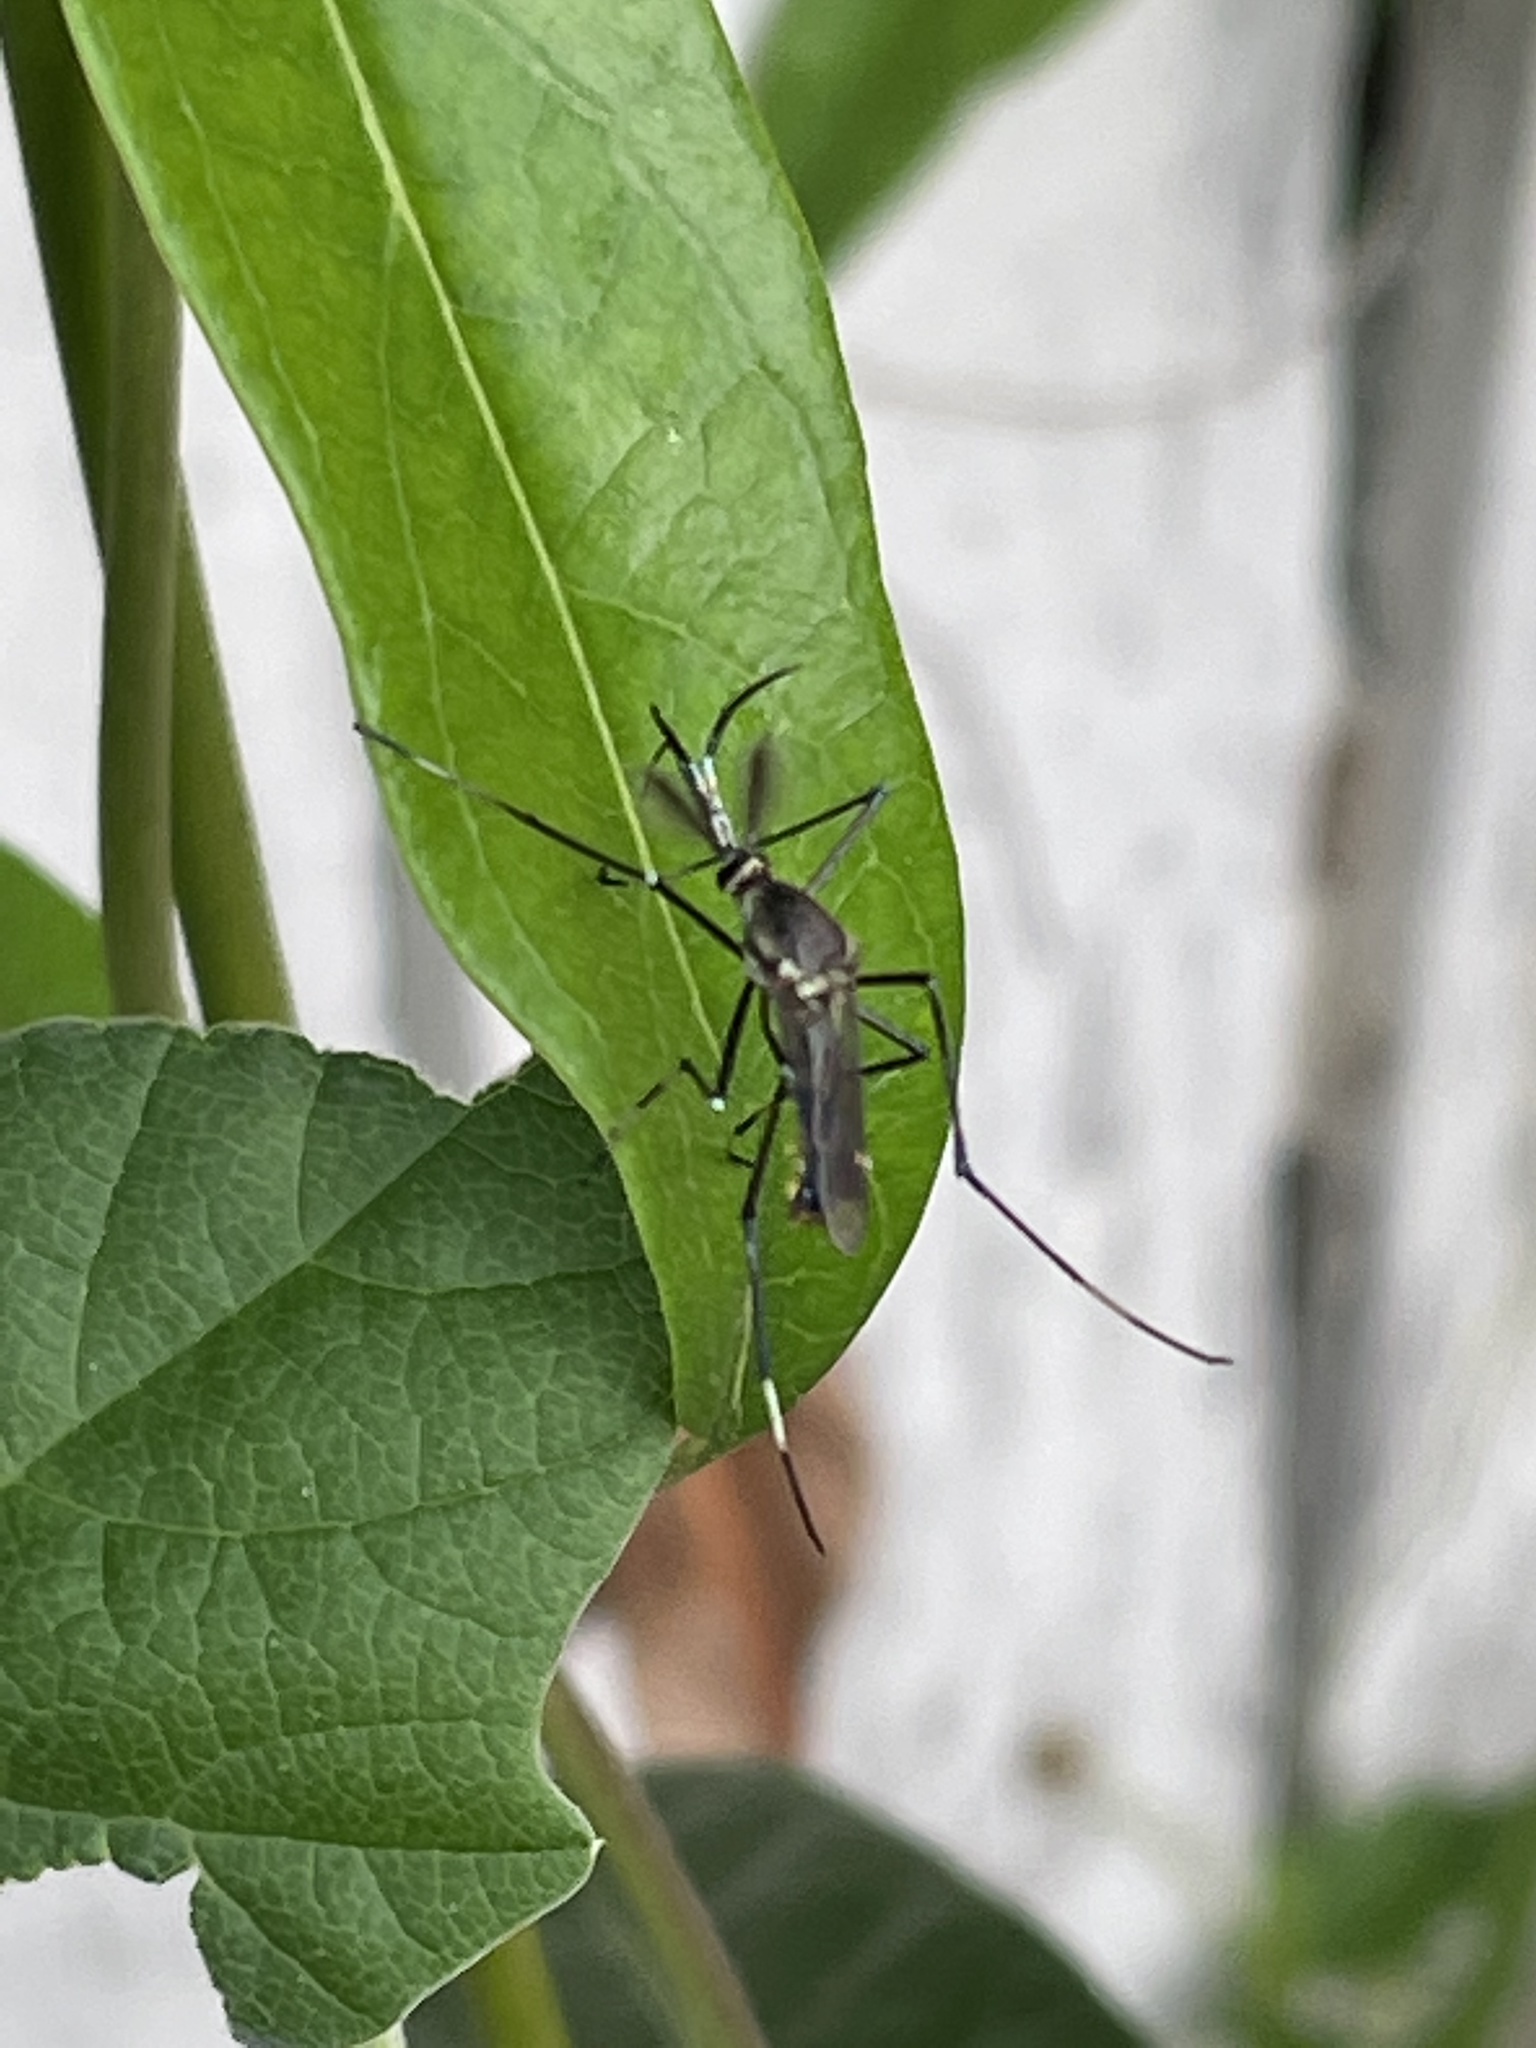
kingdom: Animalia
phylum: Arthropoda
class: Insecta
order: Diptera
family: Culicidae
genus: Toxorhynchites
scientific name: Toxorhynchites speciosus
